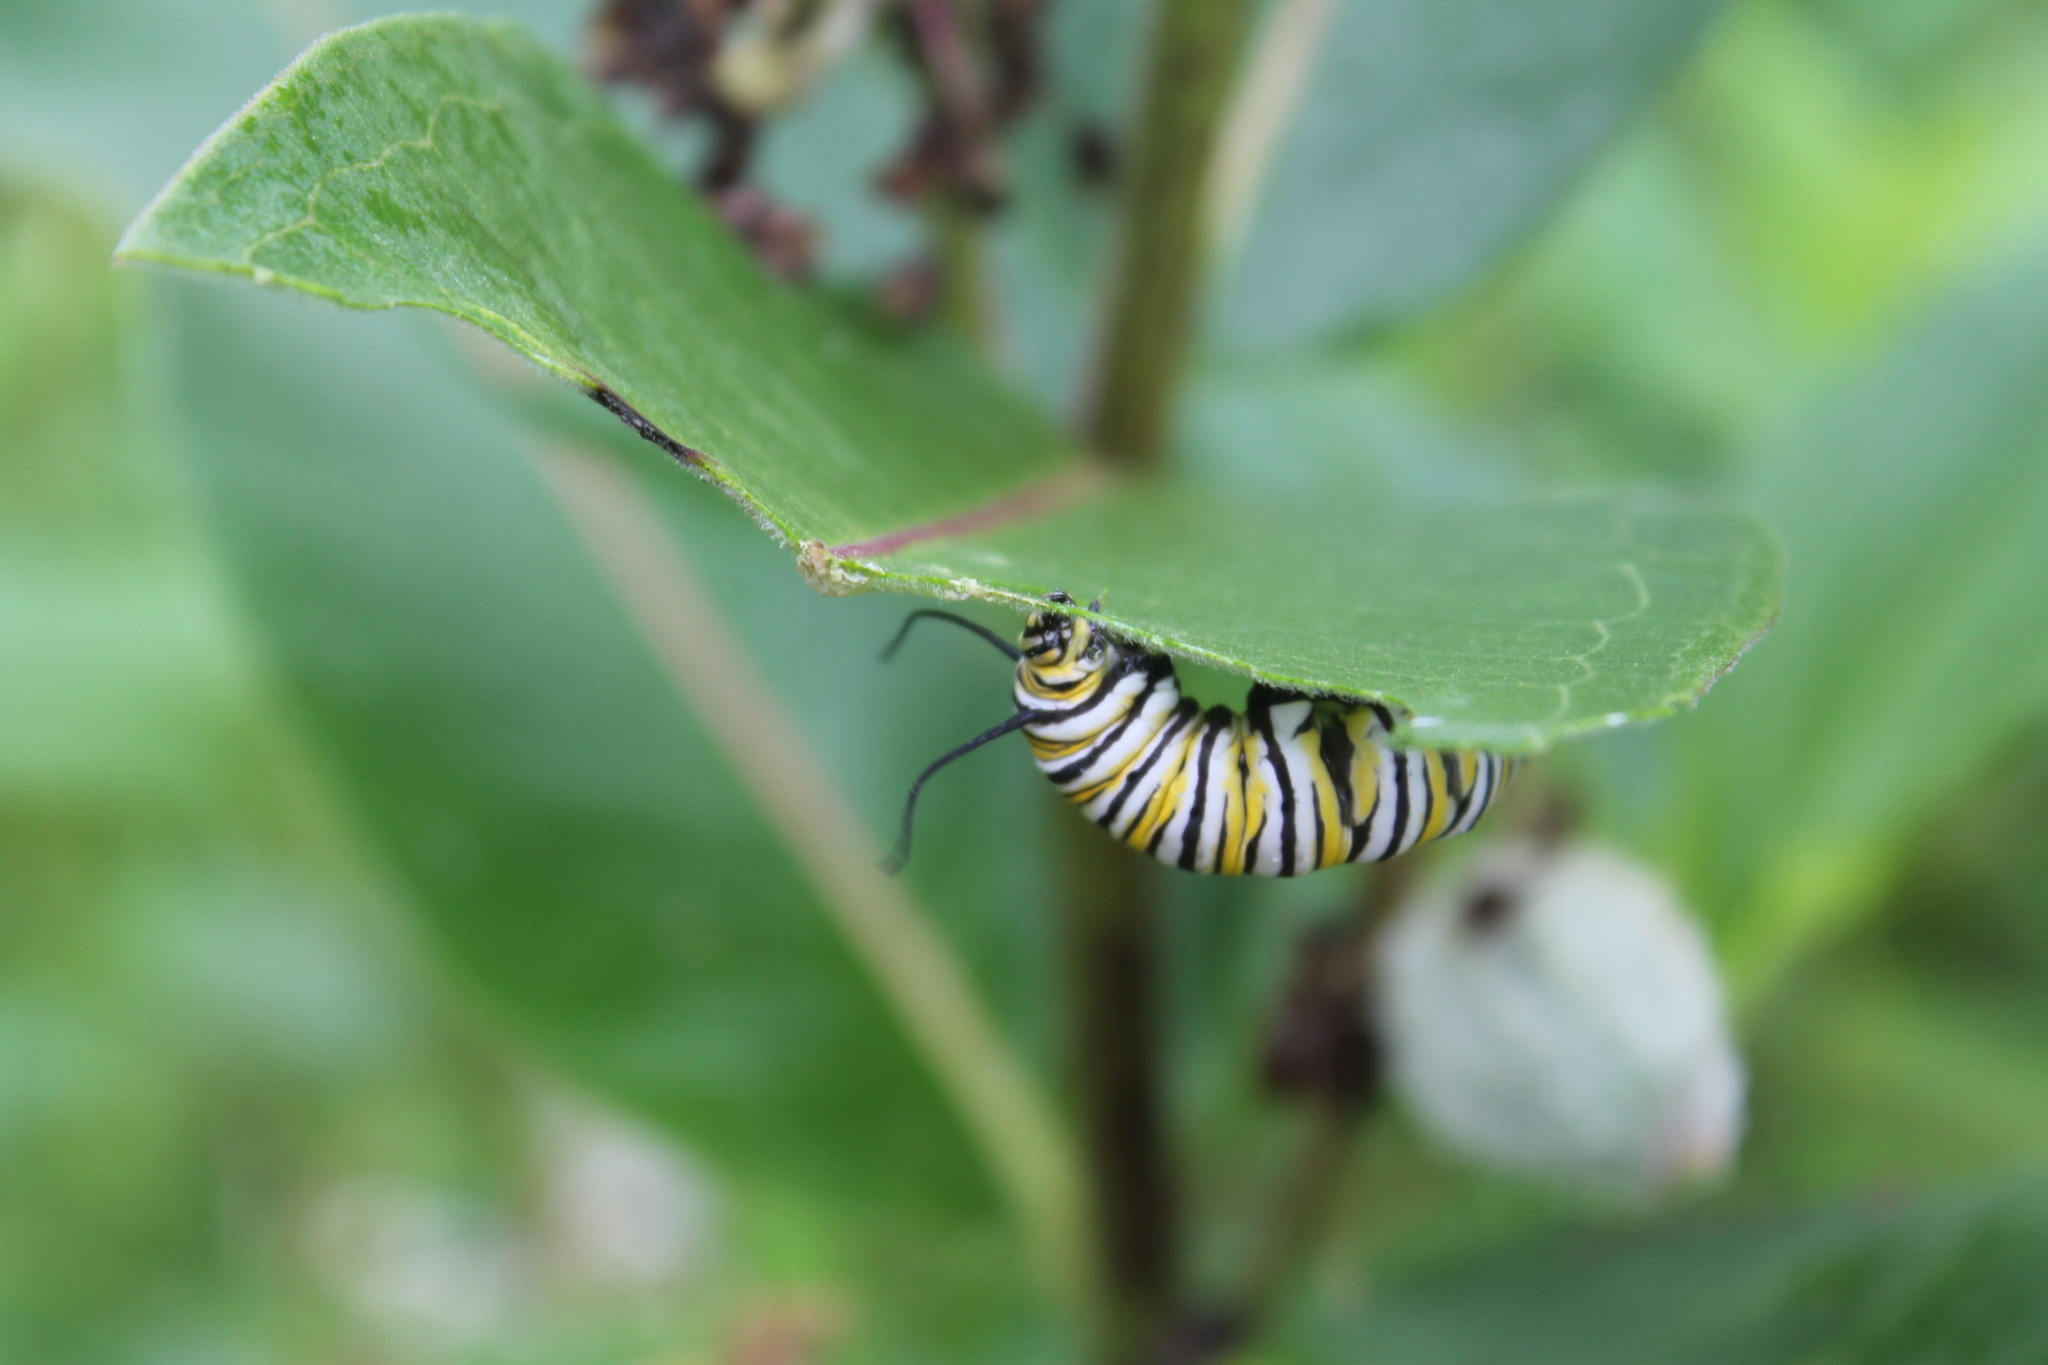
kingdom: Animalia
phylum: Arthropoda
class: Insecta
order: Lepidoptera
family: Nymphalidae
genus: Danaus
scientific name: Danaus plexippus
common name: Monarch
